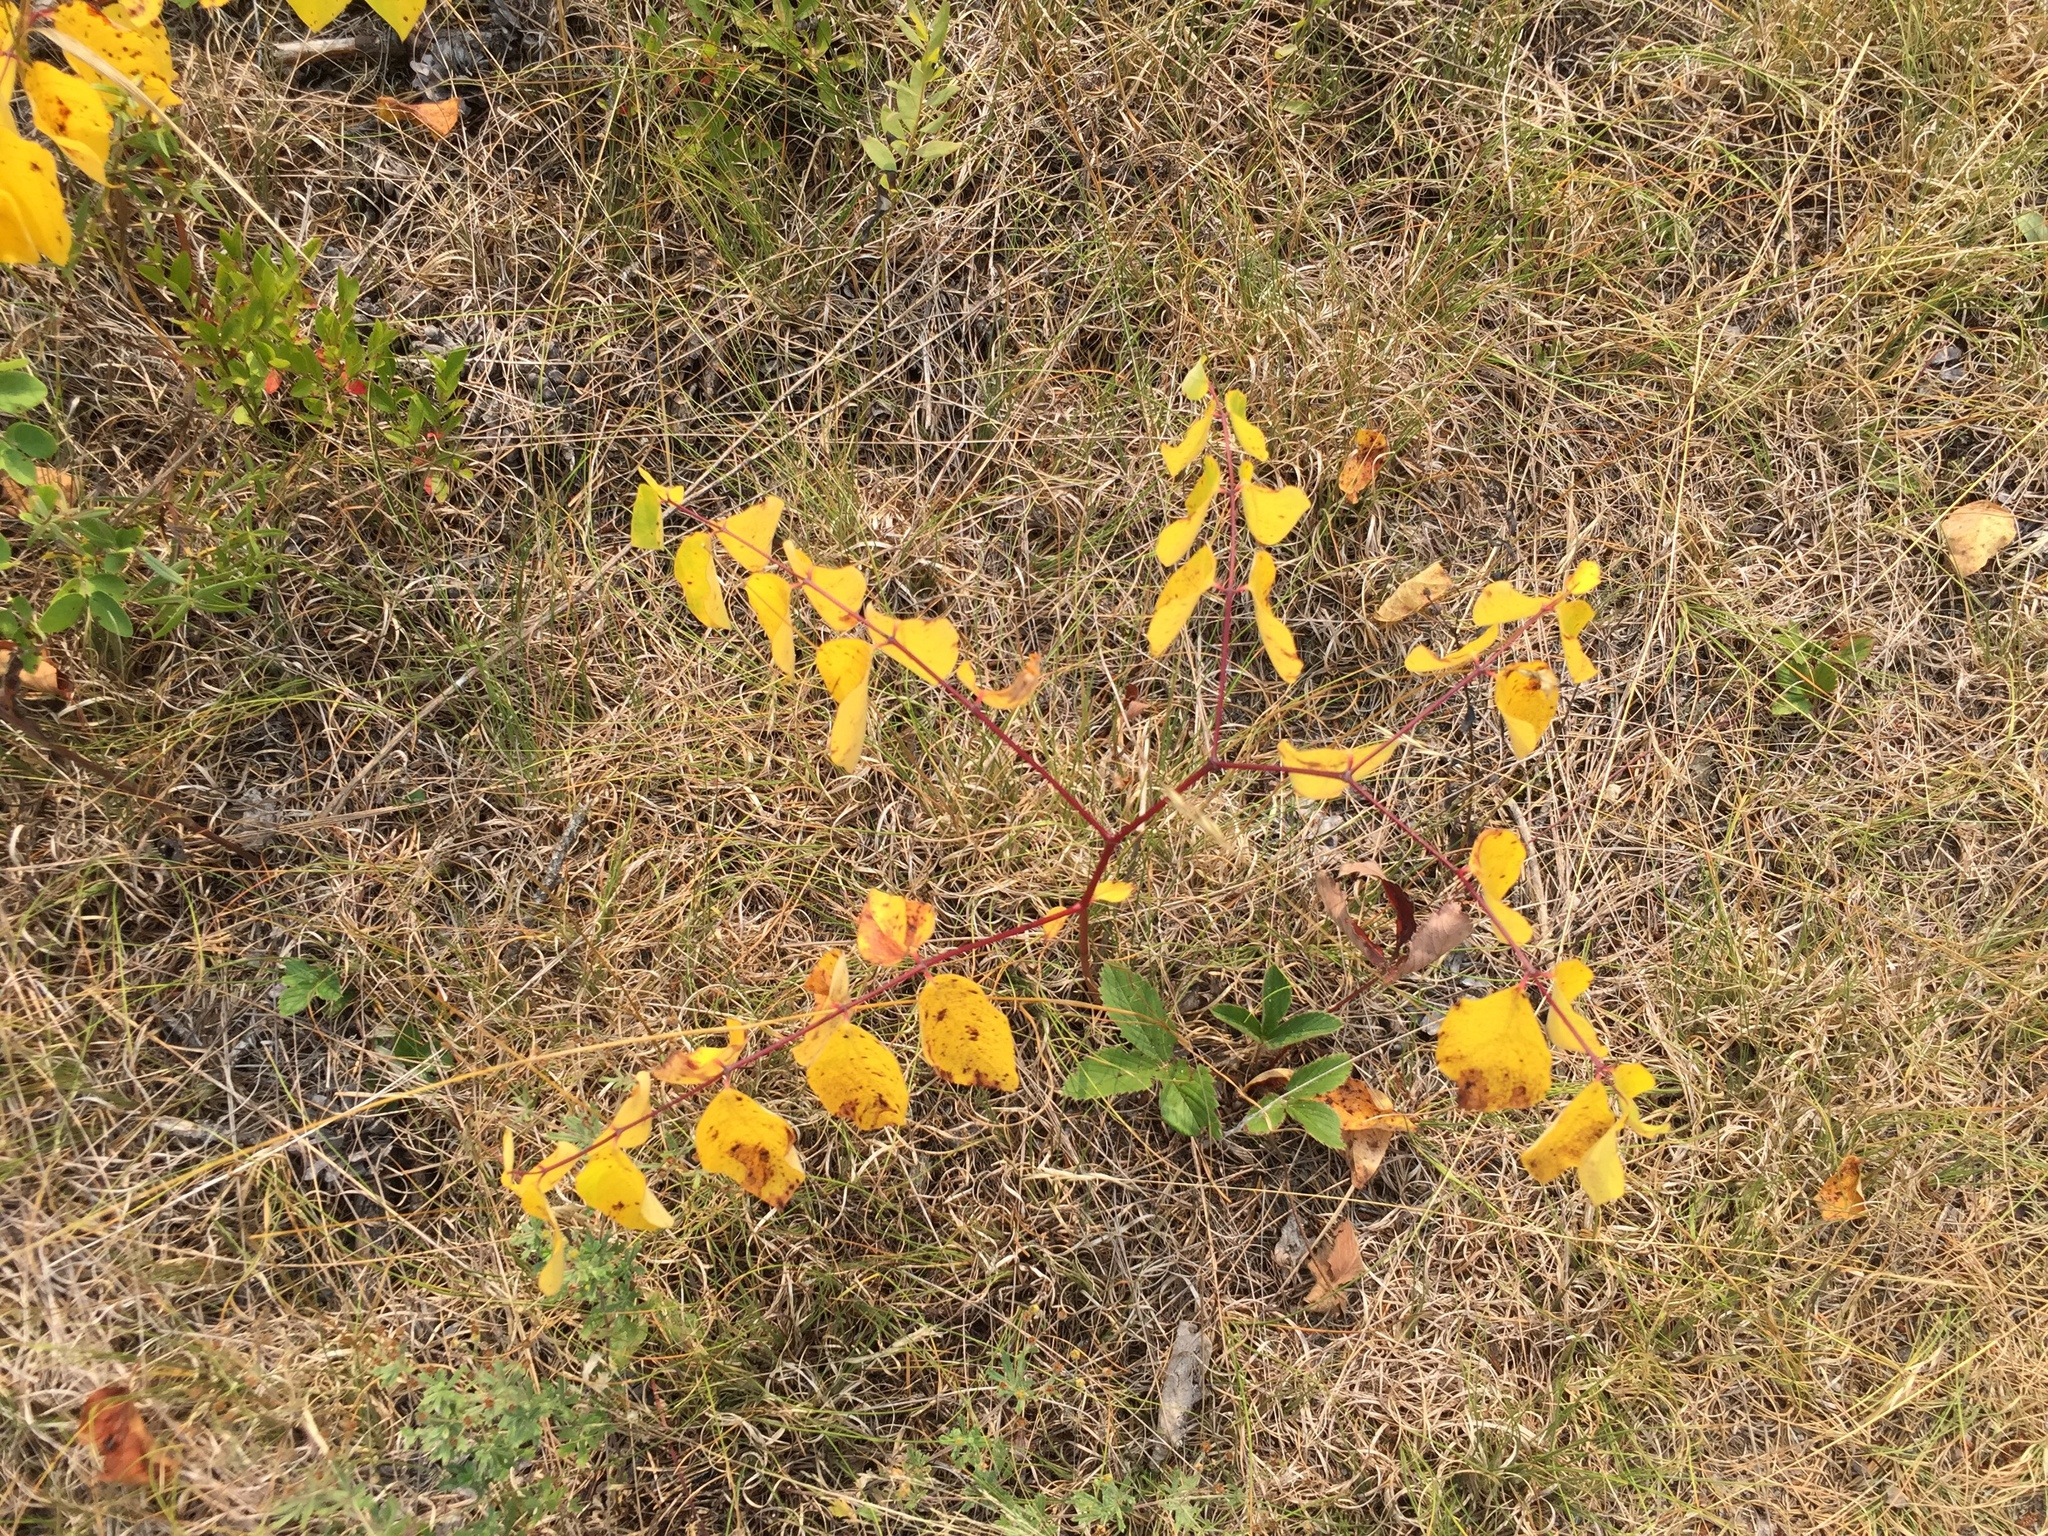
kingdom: Plantae
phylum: Tracheophyta
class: Magnoliopsida
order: Gentianales
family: Apocynaceae
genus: Apocynum
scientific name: Apocynum androsaemifolium
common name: Spreading dogbane
